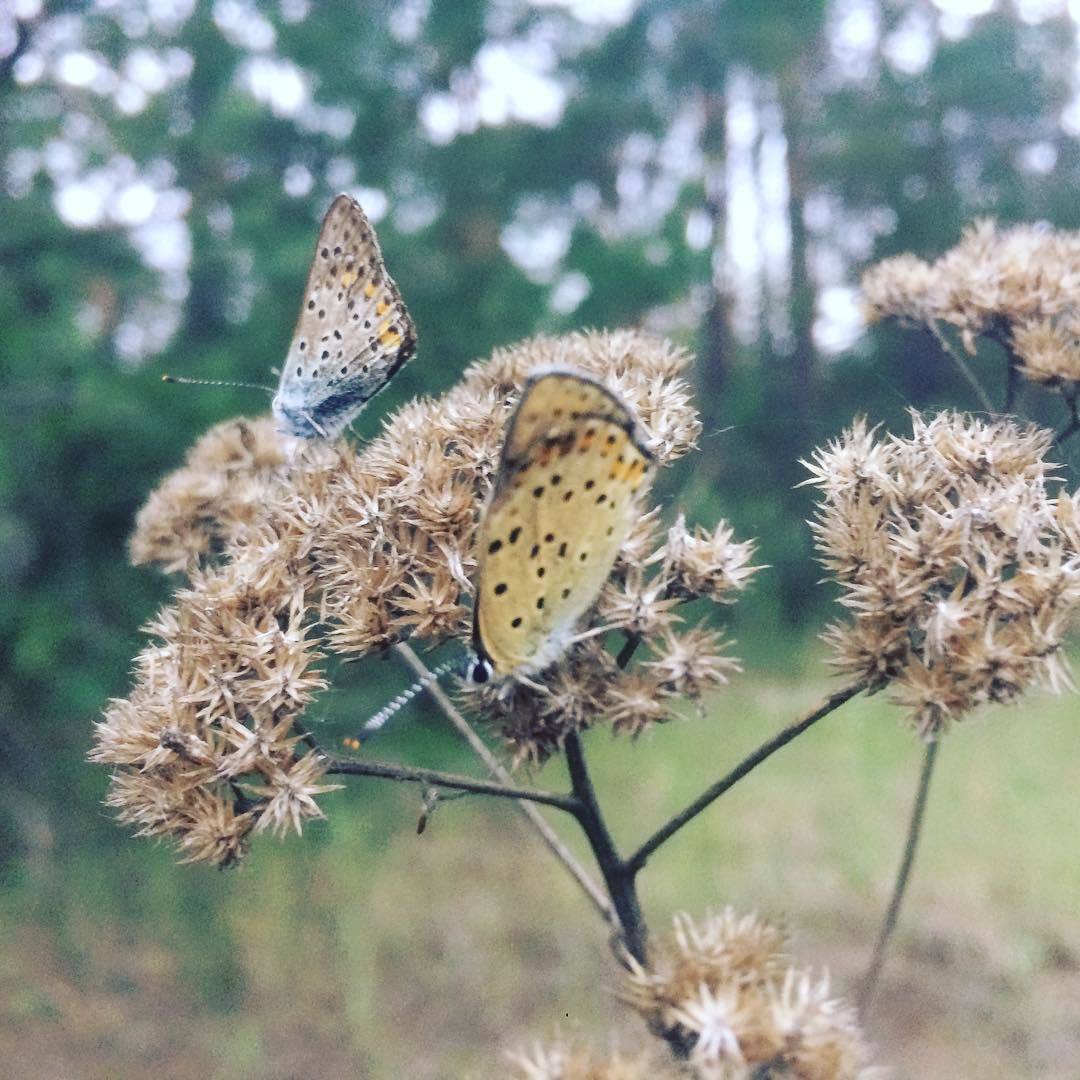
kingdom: Animalia
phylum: Arthropoda
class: Insecta
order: Lepidoptera
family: Lycaenidae
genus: Loweia
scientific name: Loweia tityrus
